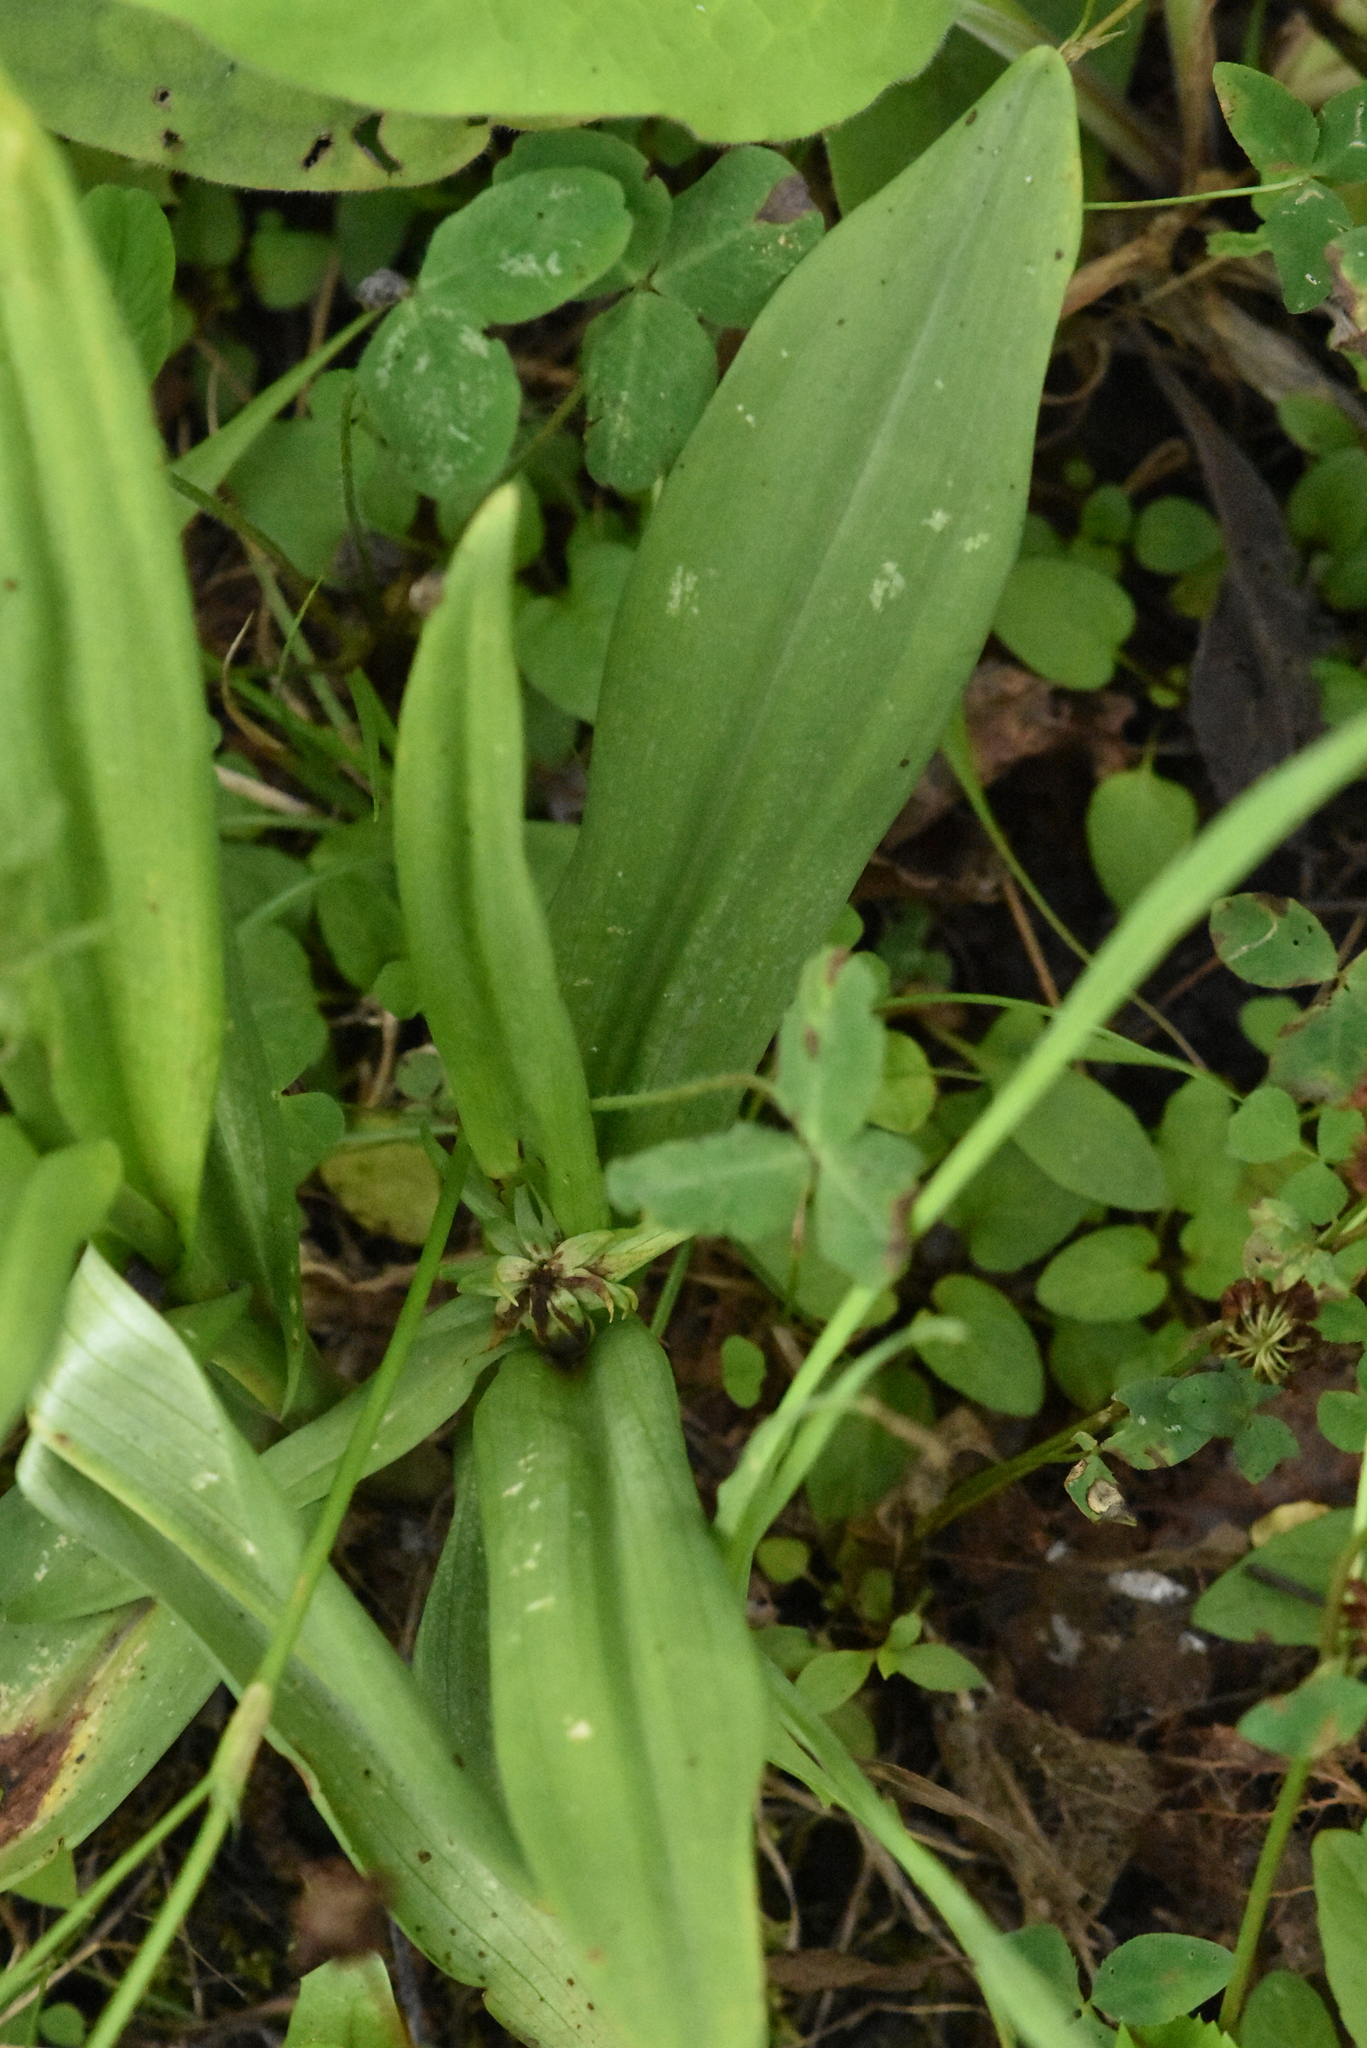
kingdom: Plantae
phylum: Tracheophyta
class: Liliopsida
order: Asparagales
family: Orchidaceae
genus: Dactylorhiza
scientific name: Dactylorhiza sibirica
